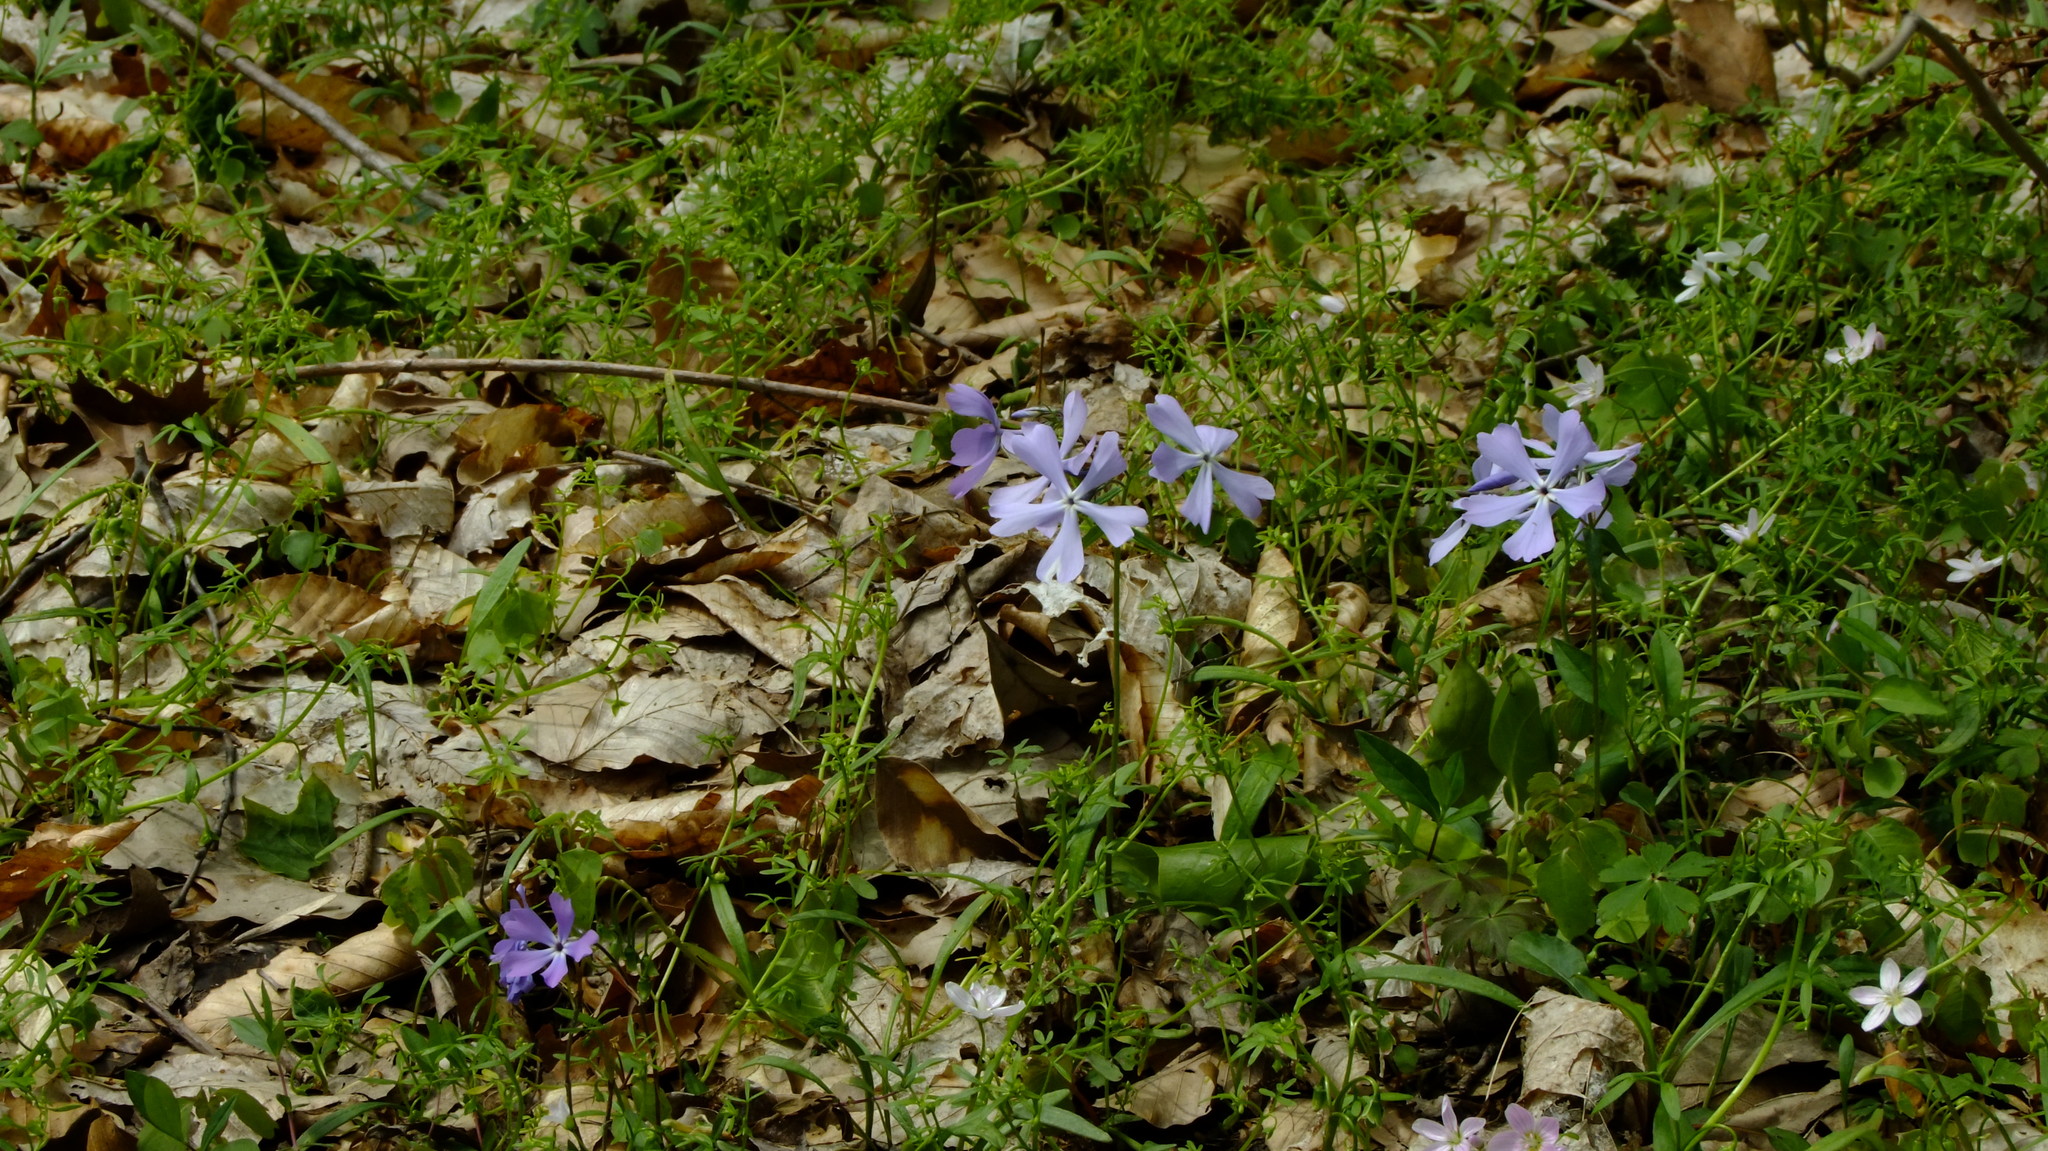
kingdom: Plantae
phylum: Tracheophyta
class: Magnoliopsida
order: Brassicales
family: Limnanthaceae
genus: Floerkea
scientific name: Floerkea proserpinacoides
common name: False mermaid
